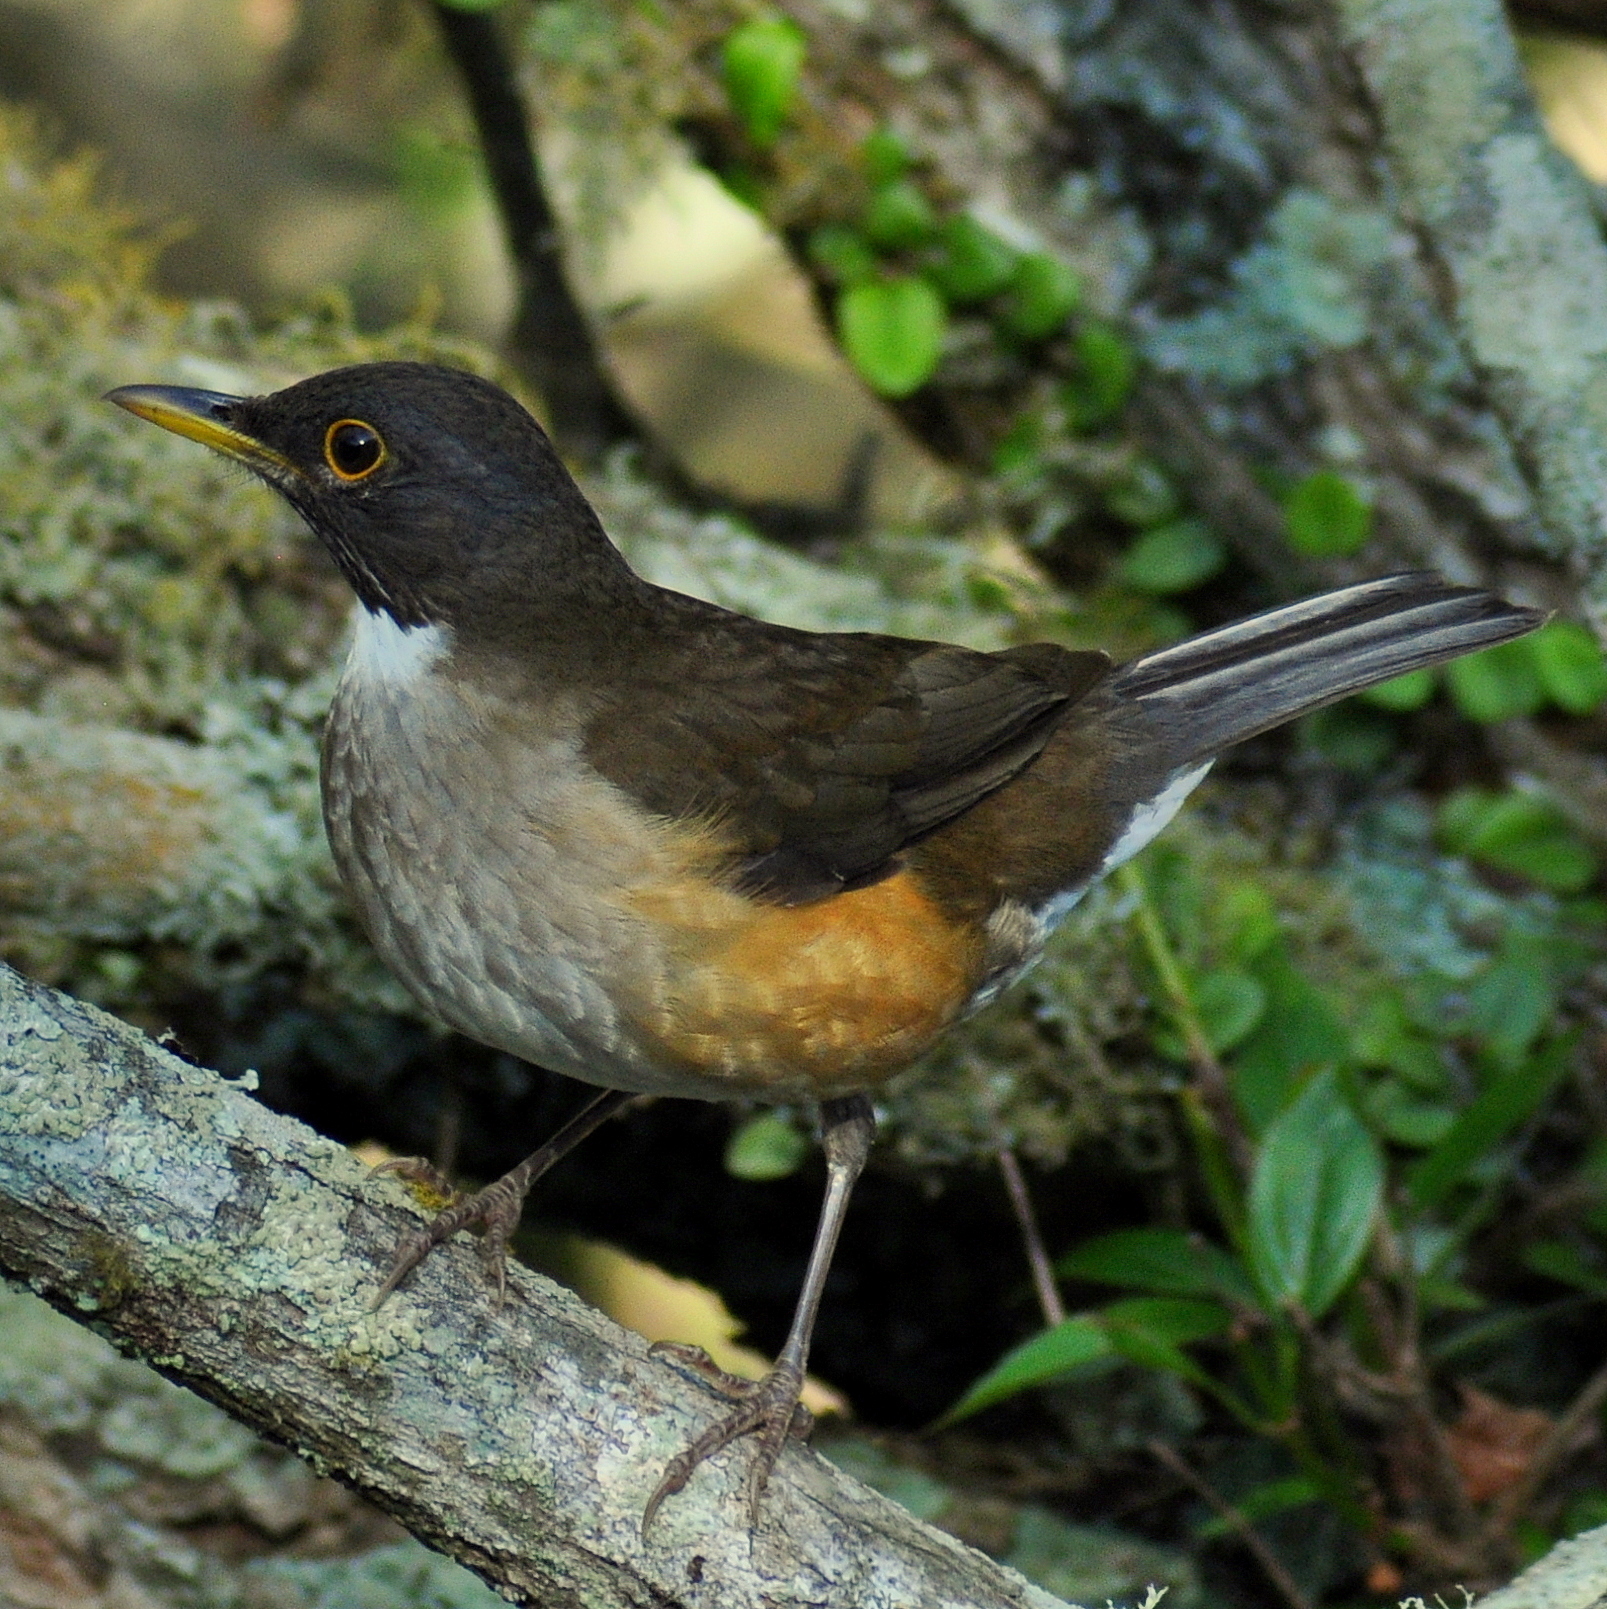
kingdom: Animalia
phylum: Chordata
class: Aves
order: Passeriformes
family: Turdidae
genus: Turdus
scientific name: Turdus albicollis
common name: White-necked thrush
